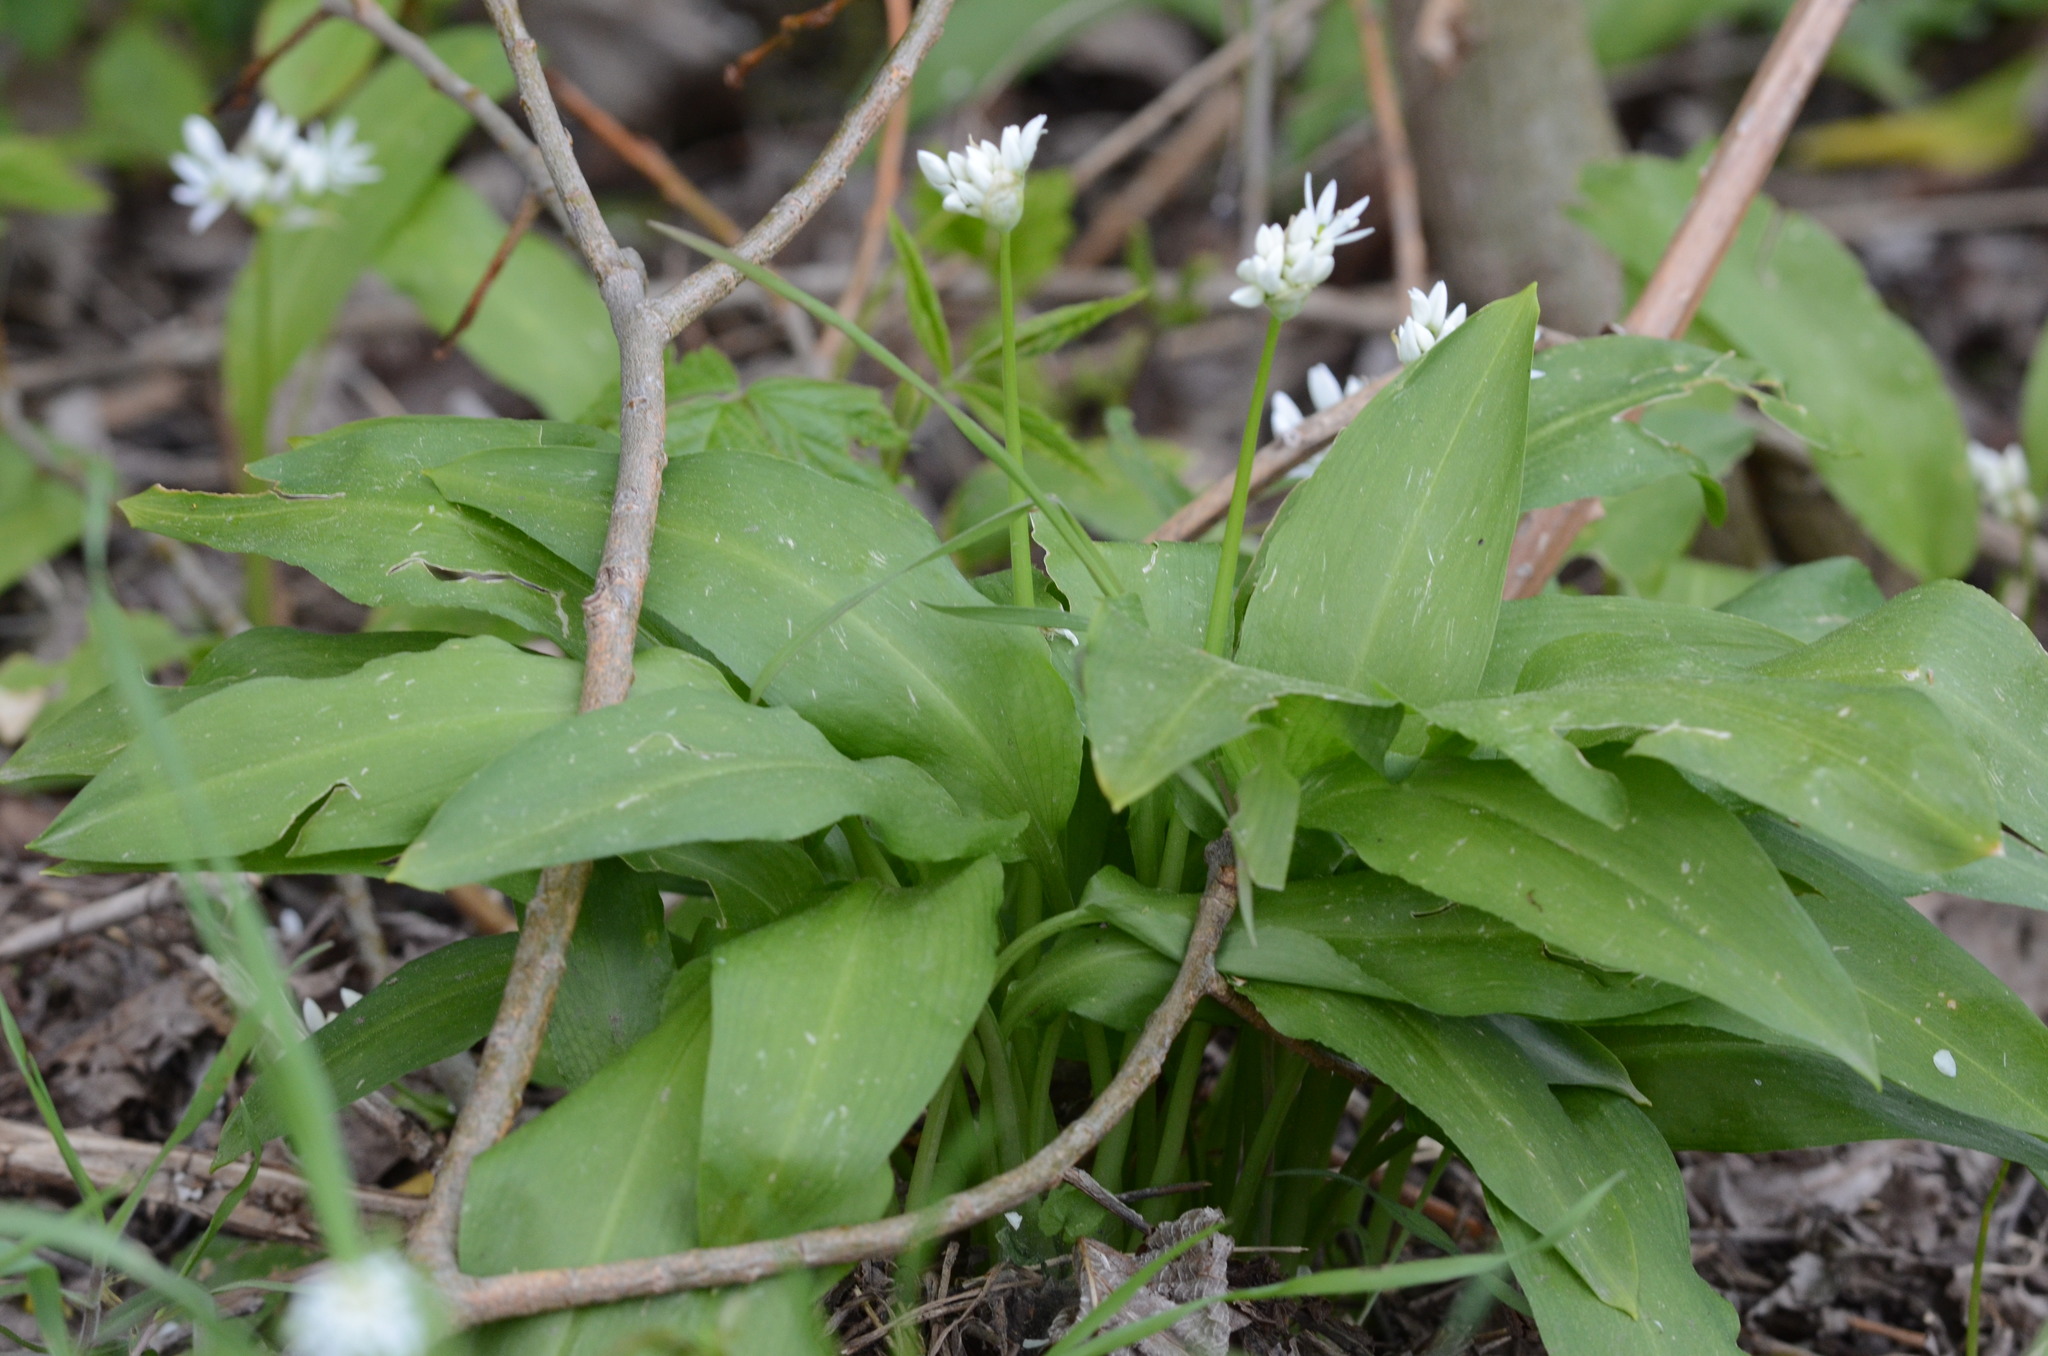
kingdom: Plantae
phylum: Tracheophyta
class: Liliopsida
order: Asparagales
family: Amaryllidaceae
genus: Allium
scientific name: Allium ursinum
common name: Ramsons
